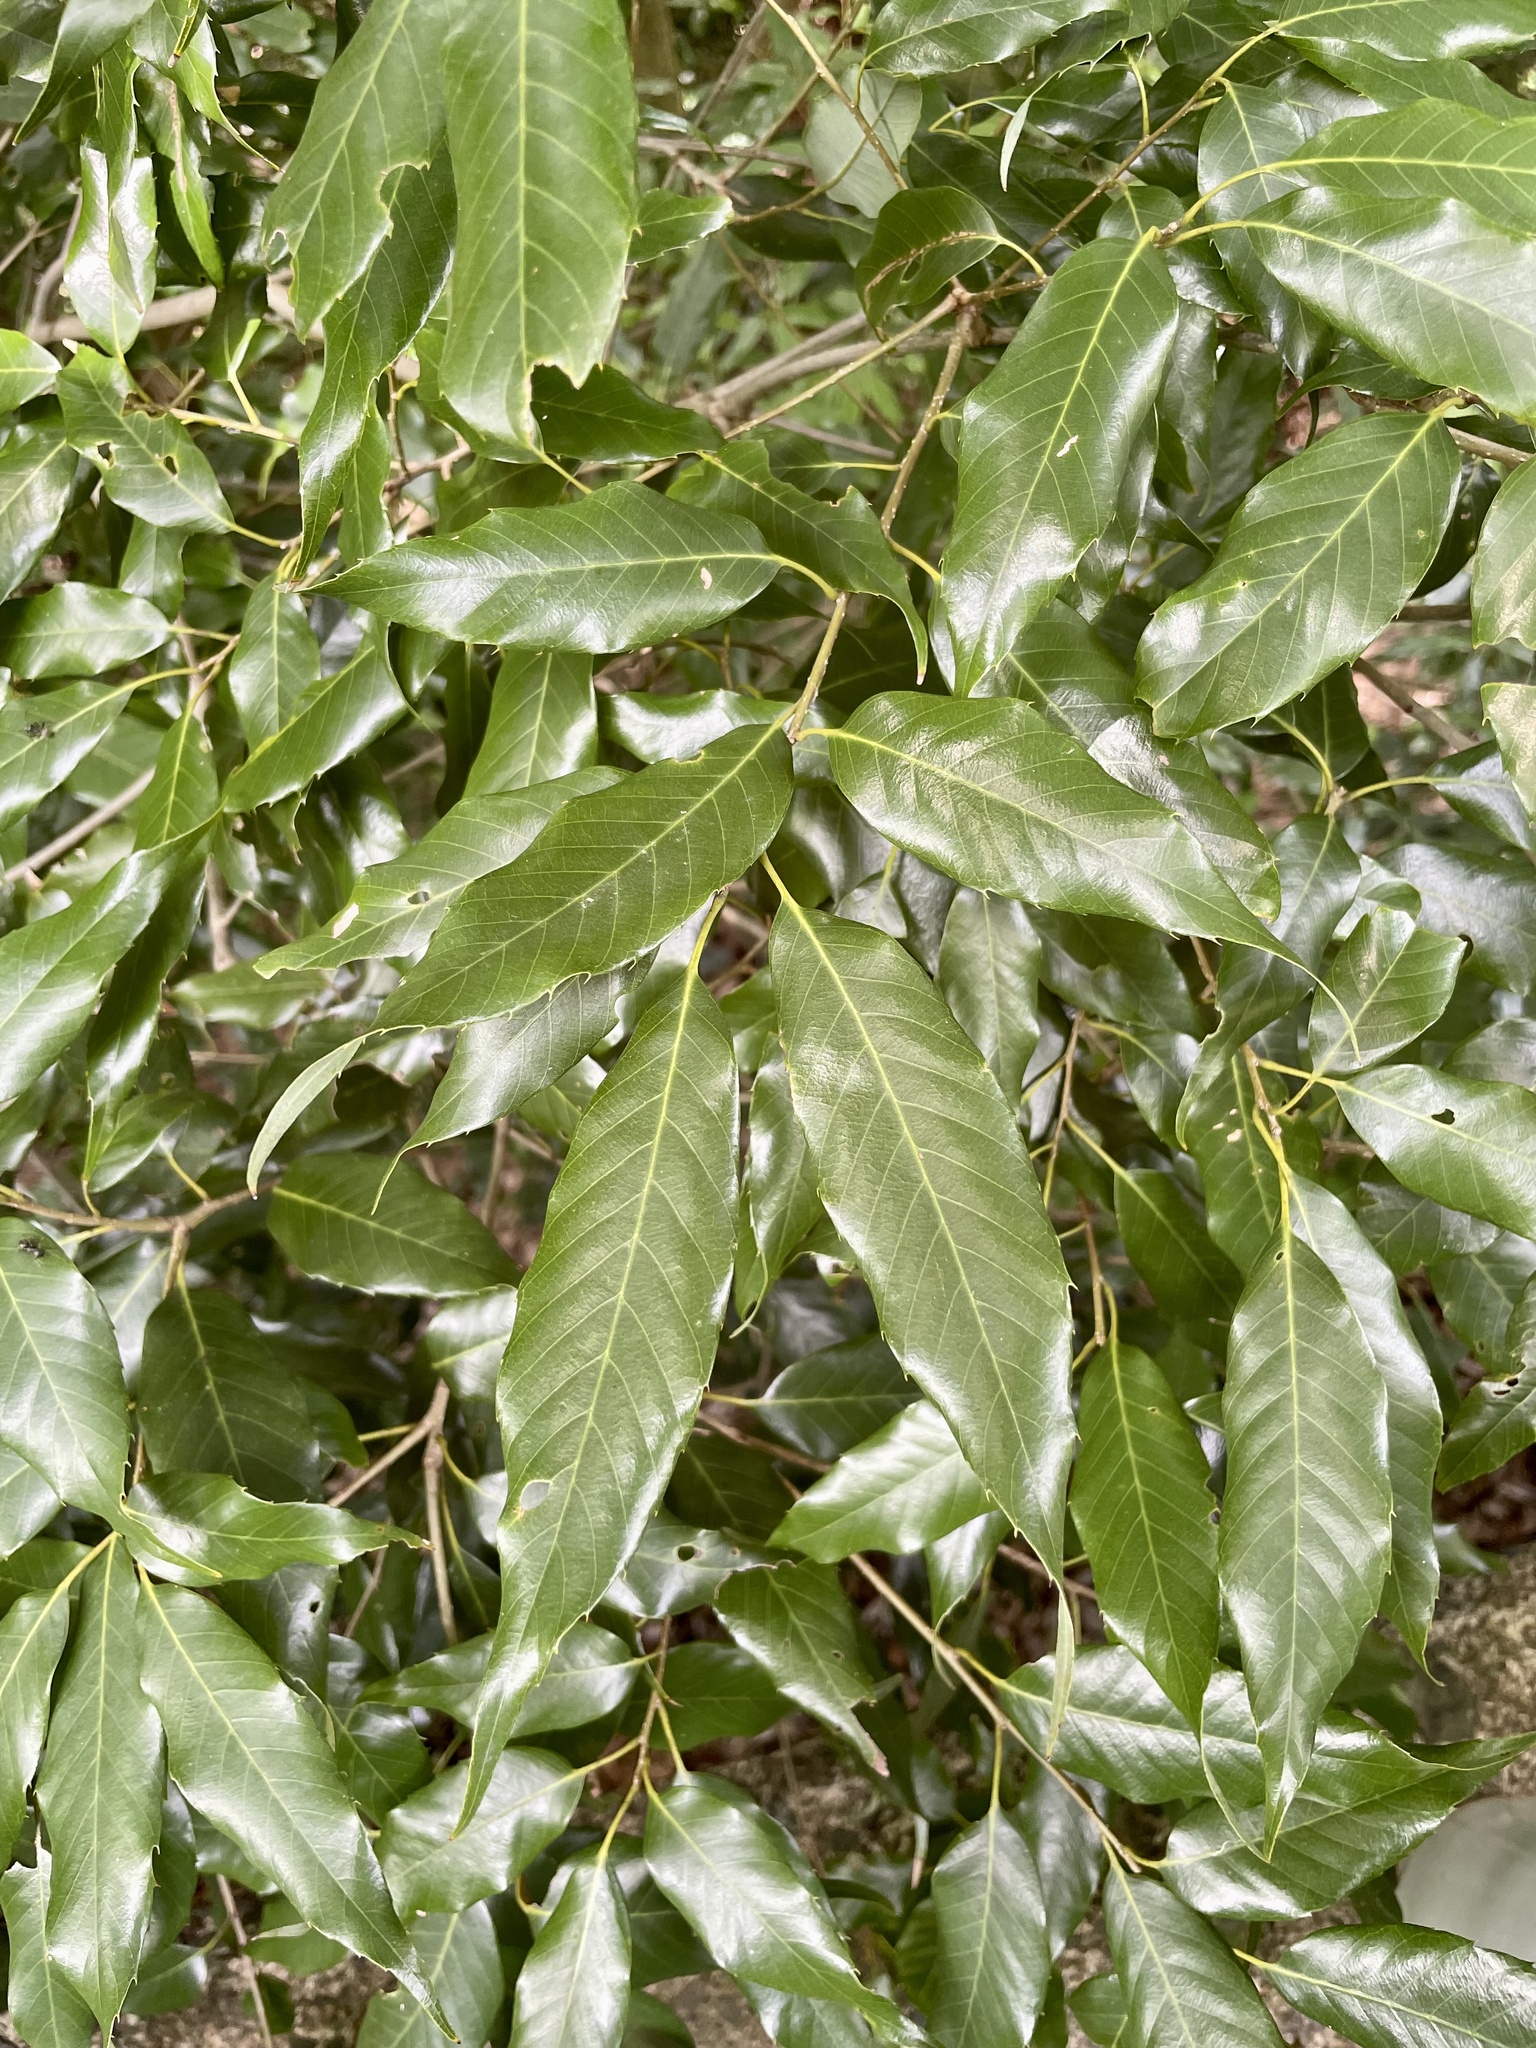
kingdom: Plantae
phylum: Tracheophyta
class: Magnoliopsida
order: Fagales
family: Fagaceae
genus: Quercus
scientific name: Quercus salicina
